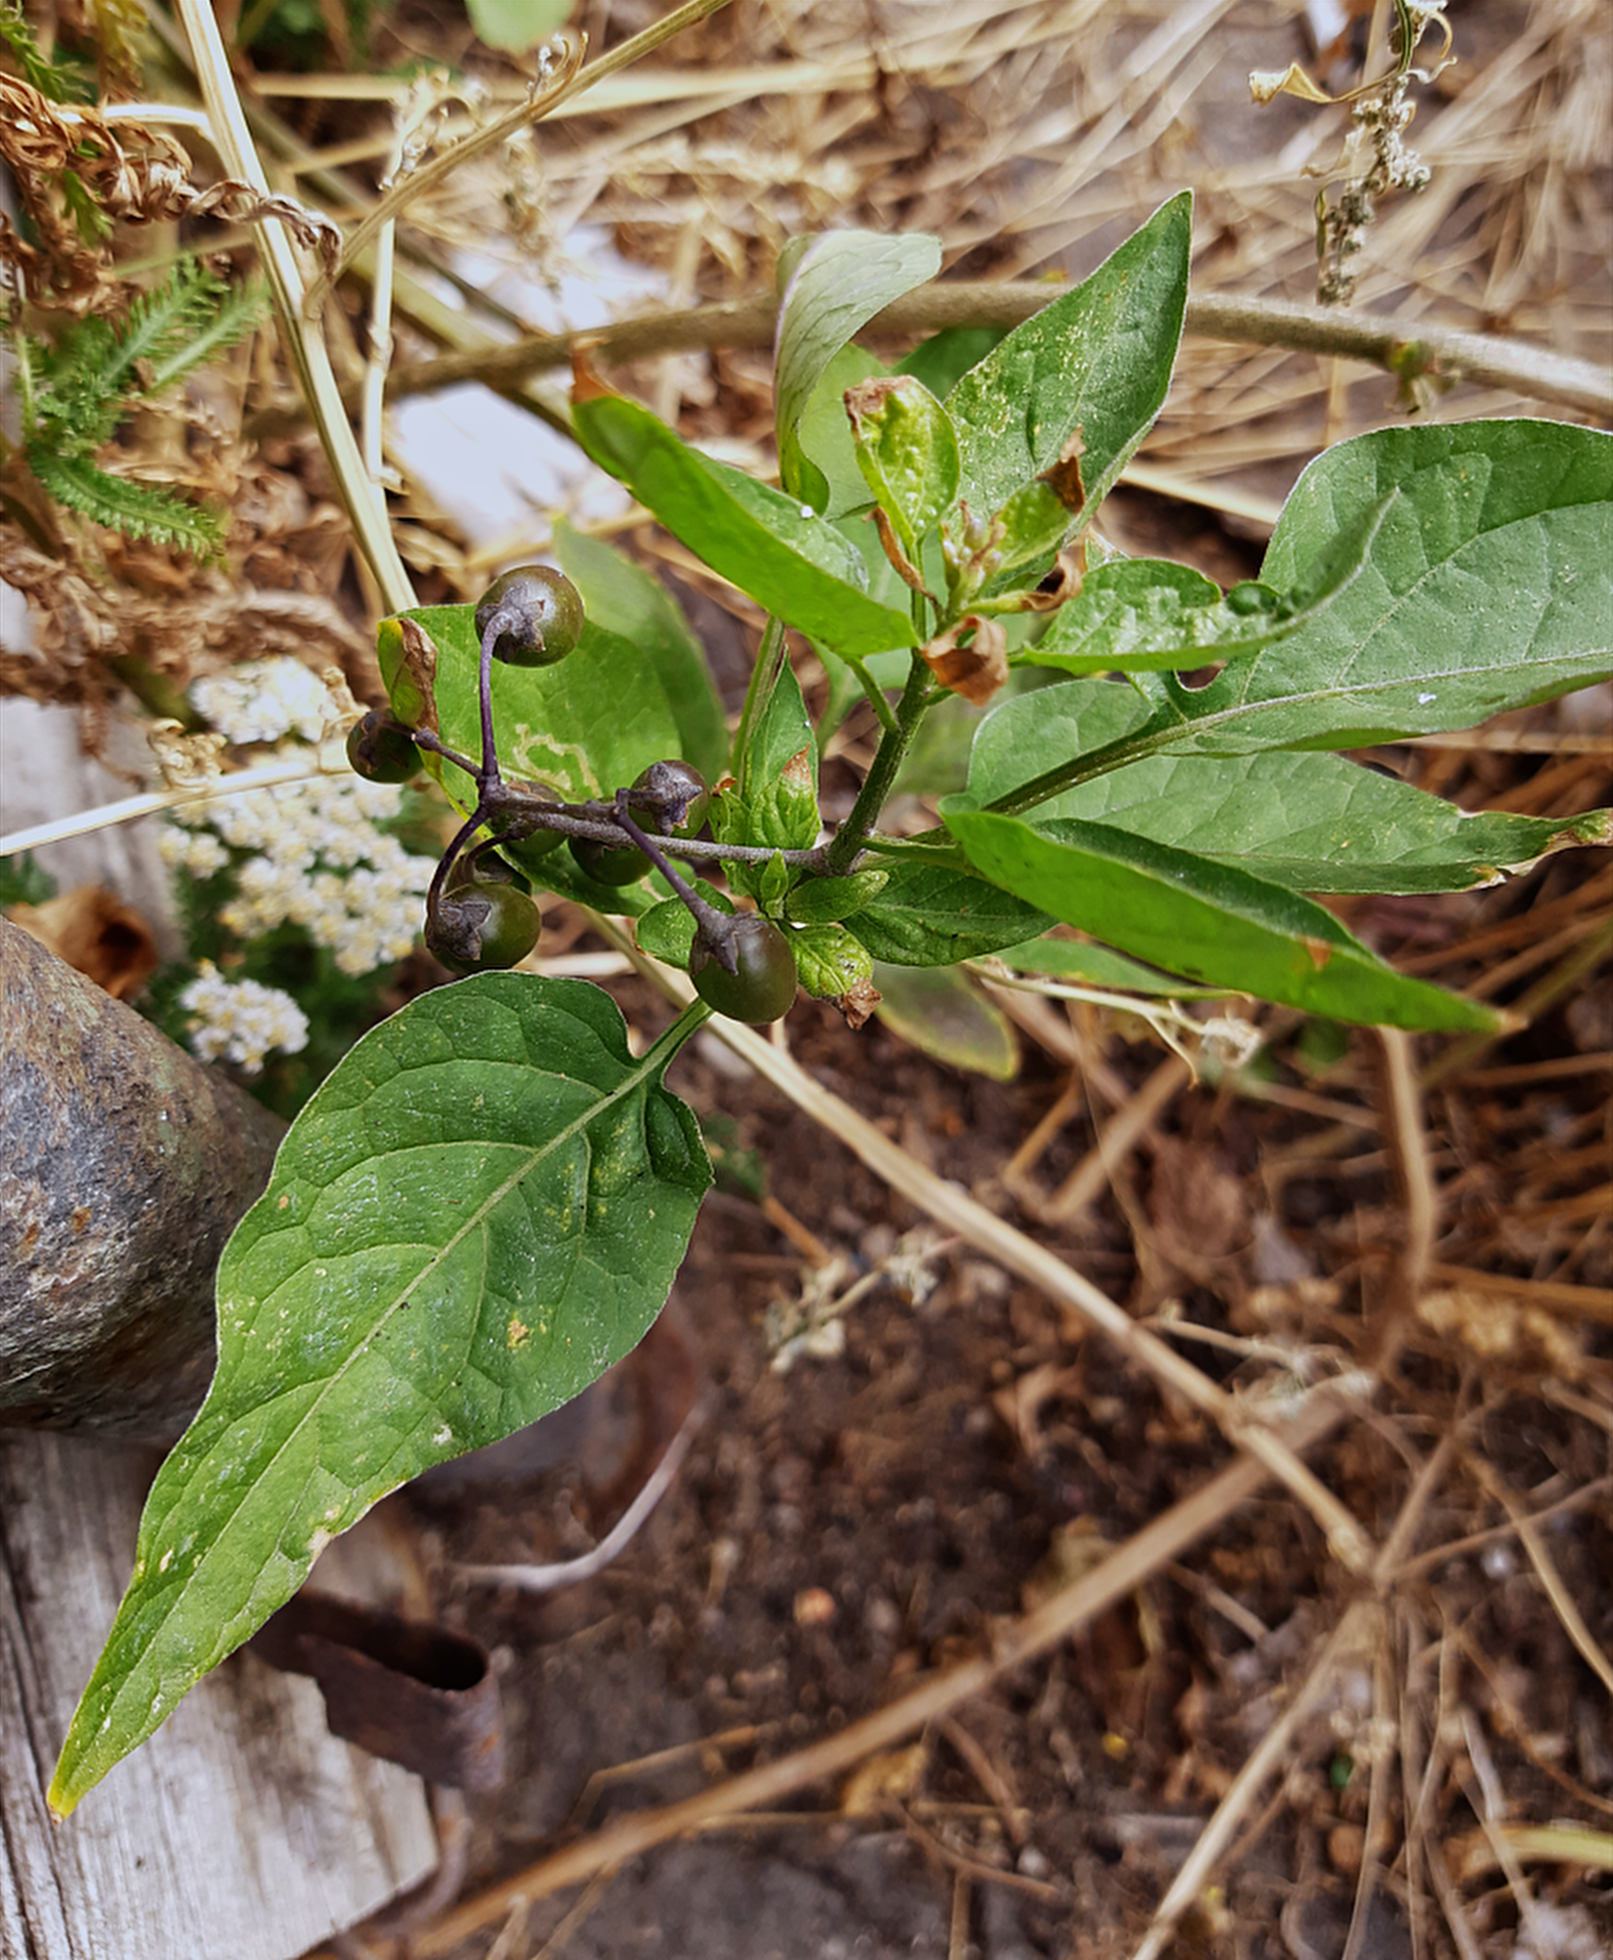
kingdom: Plantae
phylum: Tracheophyta
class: Magnoliopsida
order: Solanales
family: Solanaceae
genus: Solanum
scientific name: Solanum dulcamara
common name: Climbing nightshade
